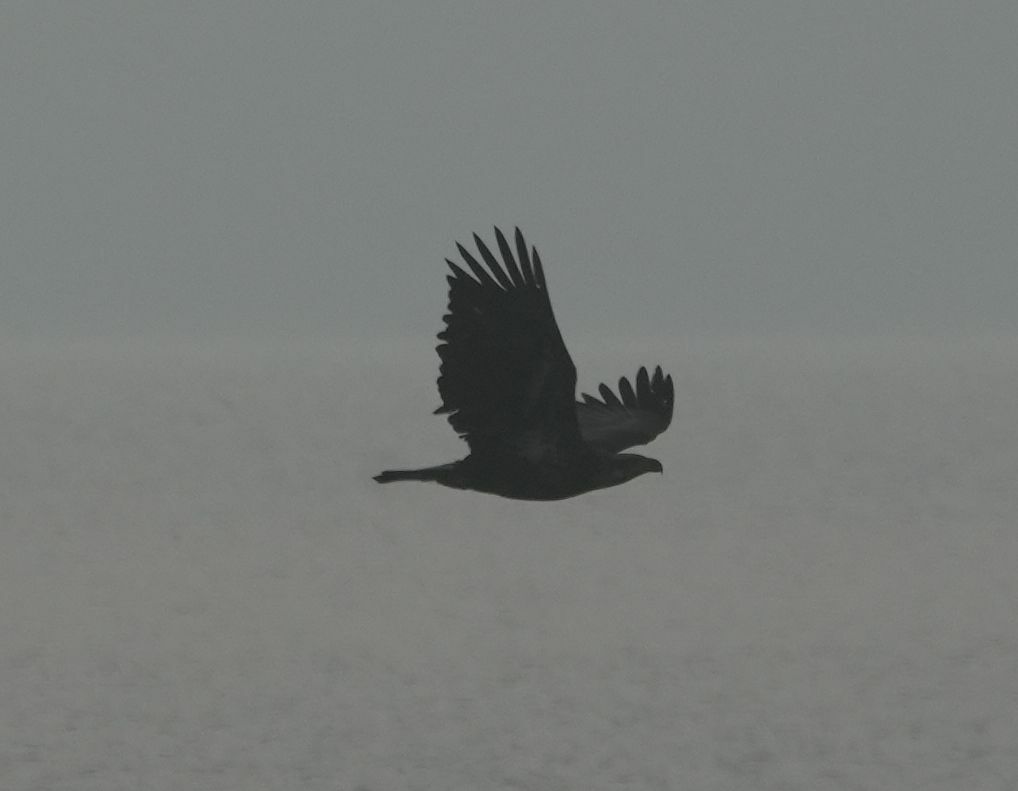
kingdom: Animalia
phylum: Chordata
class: Aves
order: Accipitriformes
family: Accipitridae
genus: Haliaeetus
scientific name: Haliaeetus leucocephalus
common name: Bald eagle
